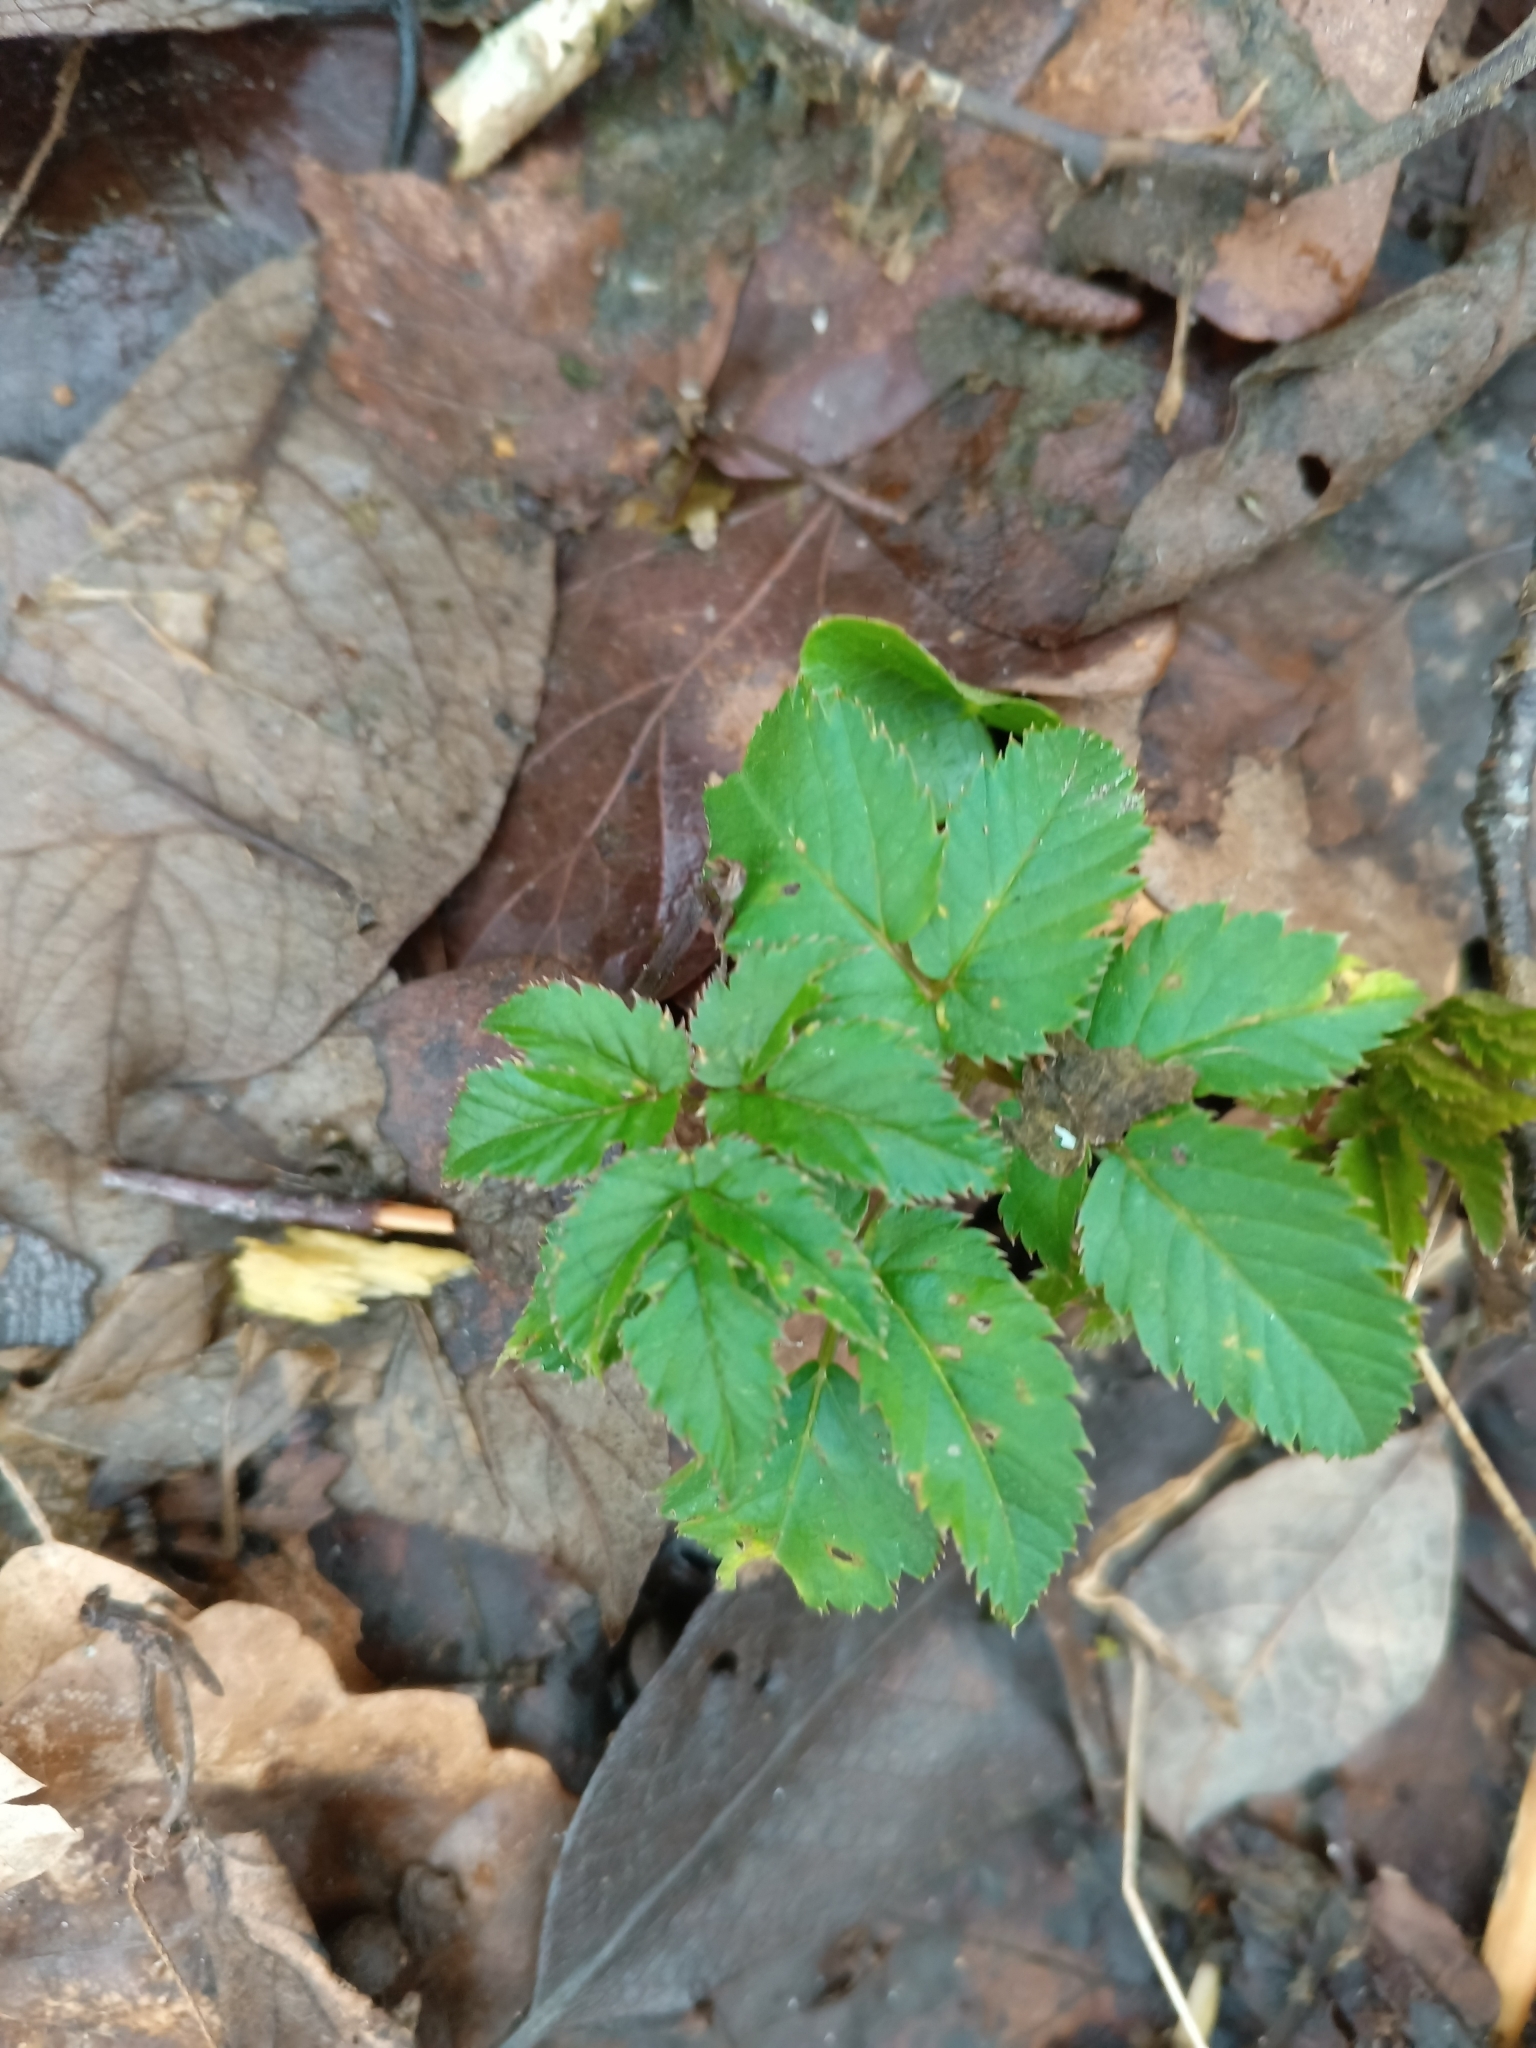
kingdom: Plantae
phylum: Tracheophyta
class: Magnoliopsida
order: Apiales
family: Apiaceae
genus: Aegopodium
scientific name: Aegopodium podagraria
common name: Ground-elder
